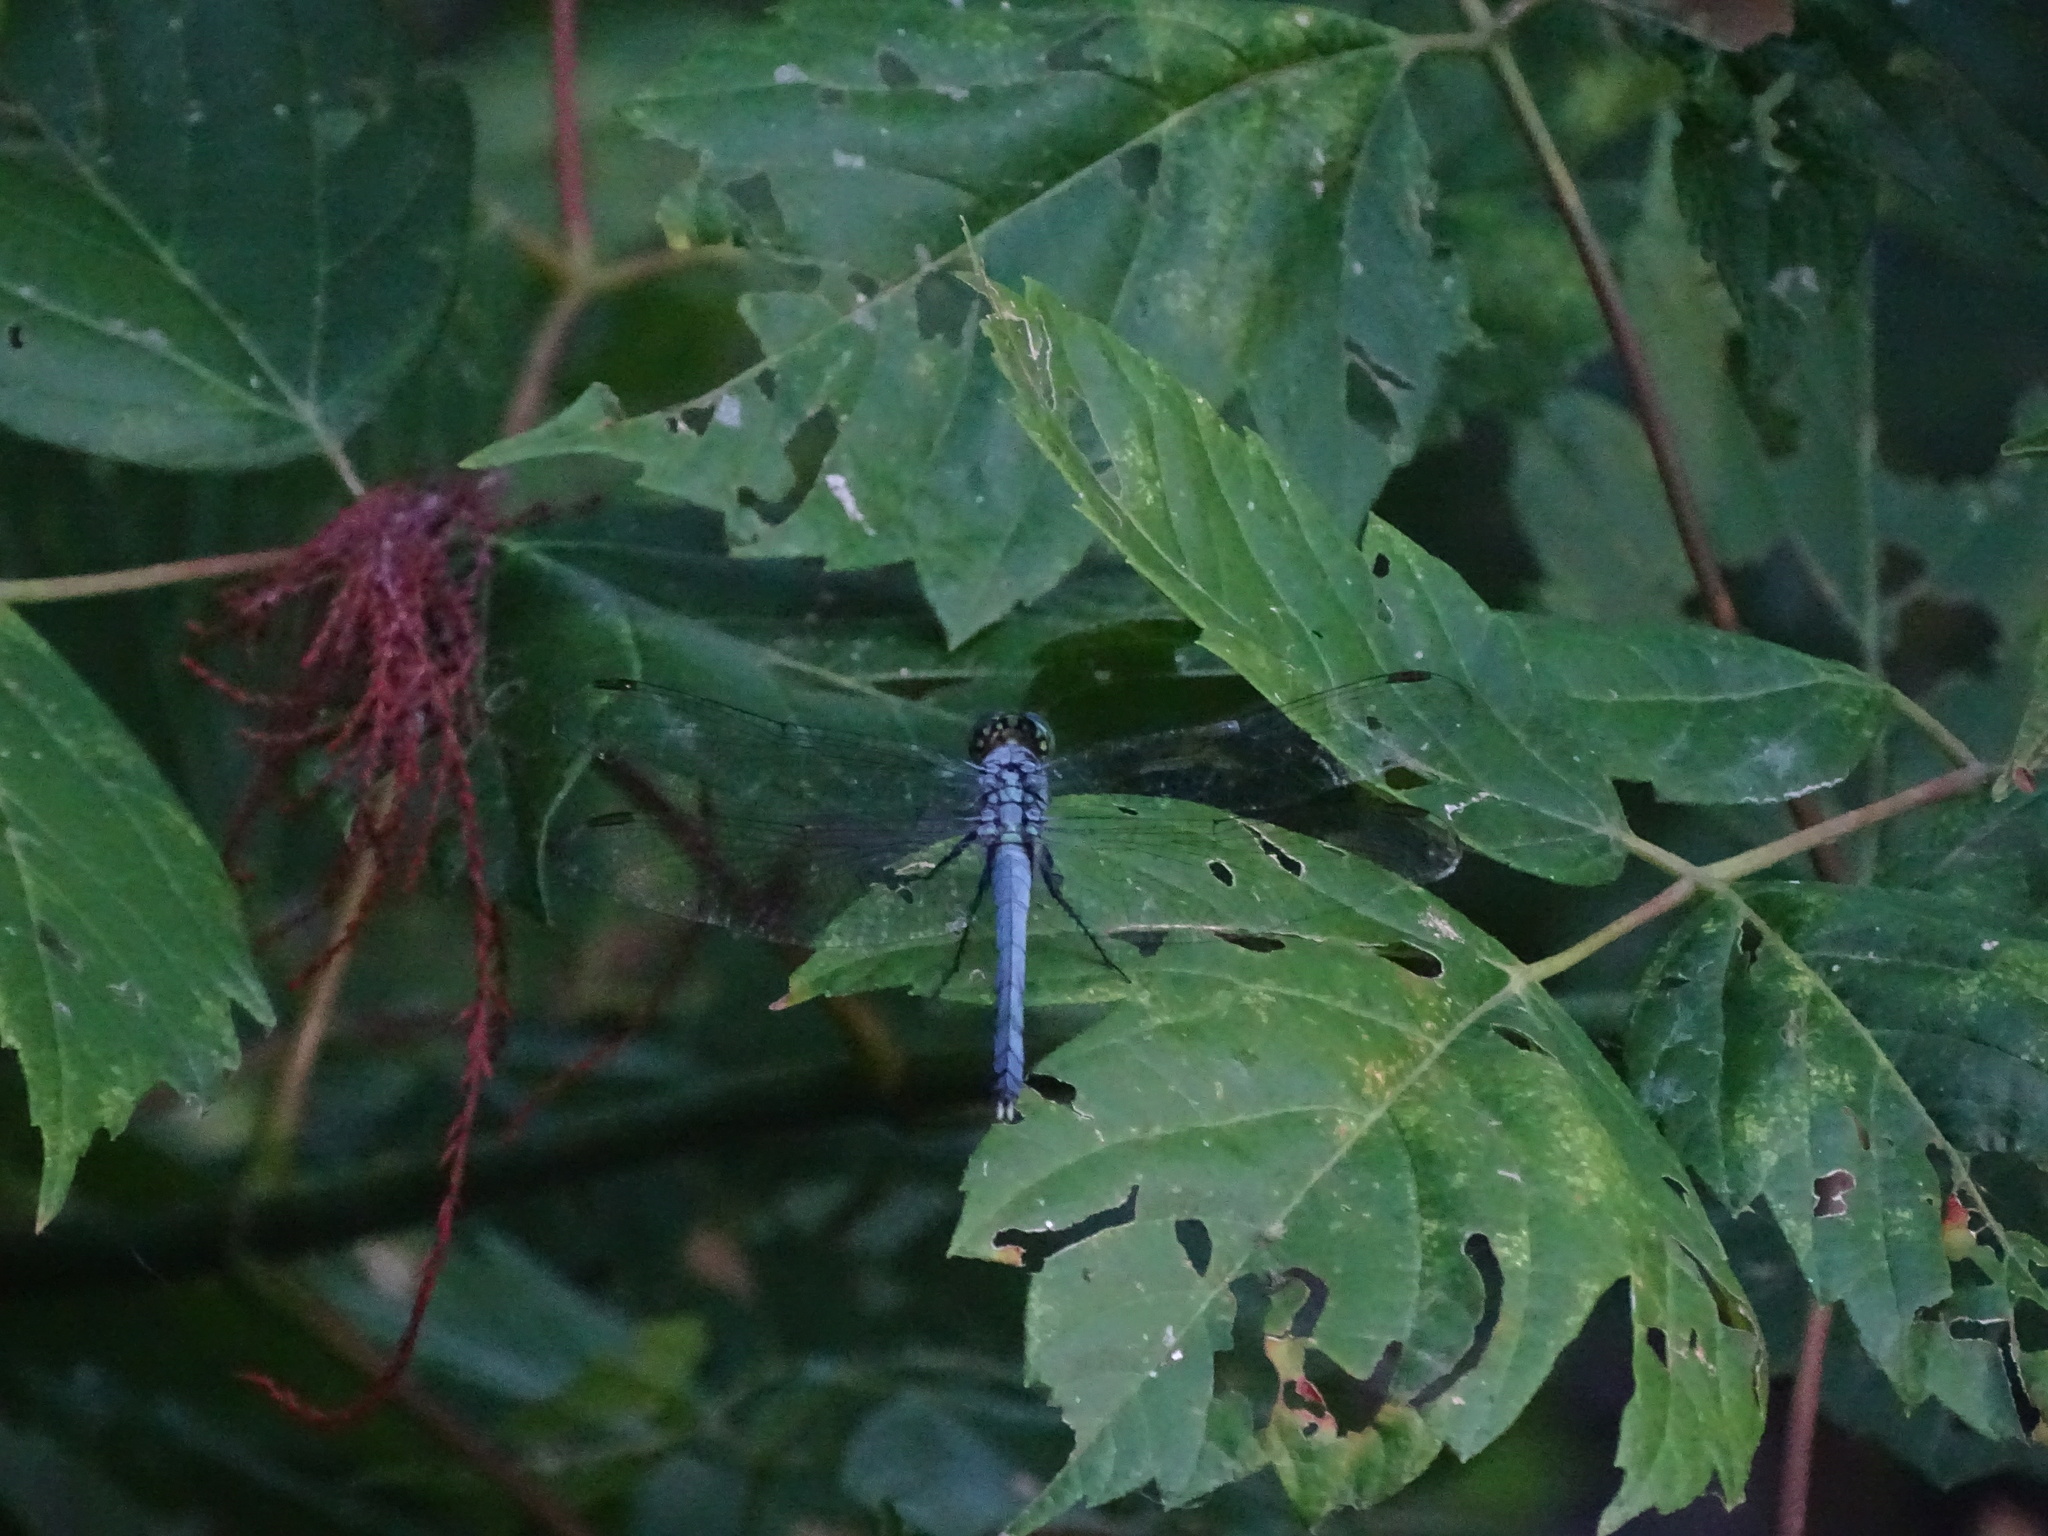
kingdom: Animalia
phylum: Arthropoda
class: Insecta
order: Odonata
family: Libellulidae
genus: Erythemis
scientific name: Erythemis simplicicollis
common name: Eastern pondhawk
